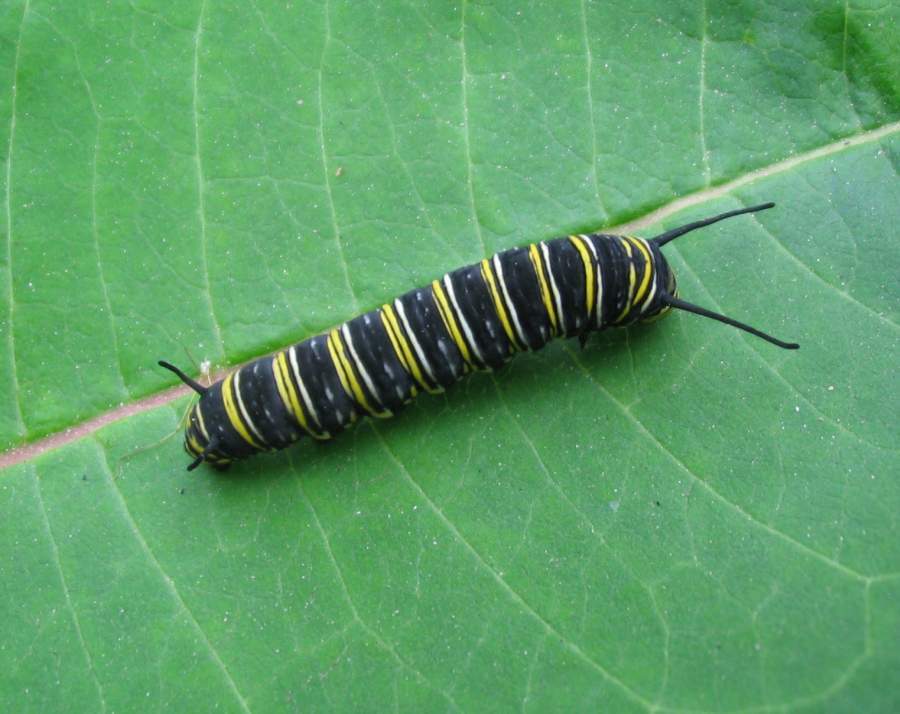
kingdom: Animalia
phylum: Arthropoda
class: Insecta
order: Lepidoptera
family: Nymphalidae
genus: Danaus
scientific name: Danaus plexippus
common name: Monarch
